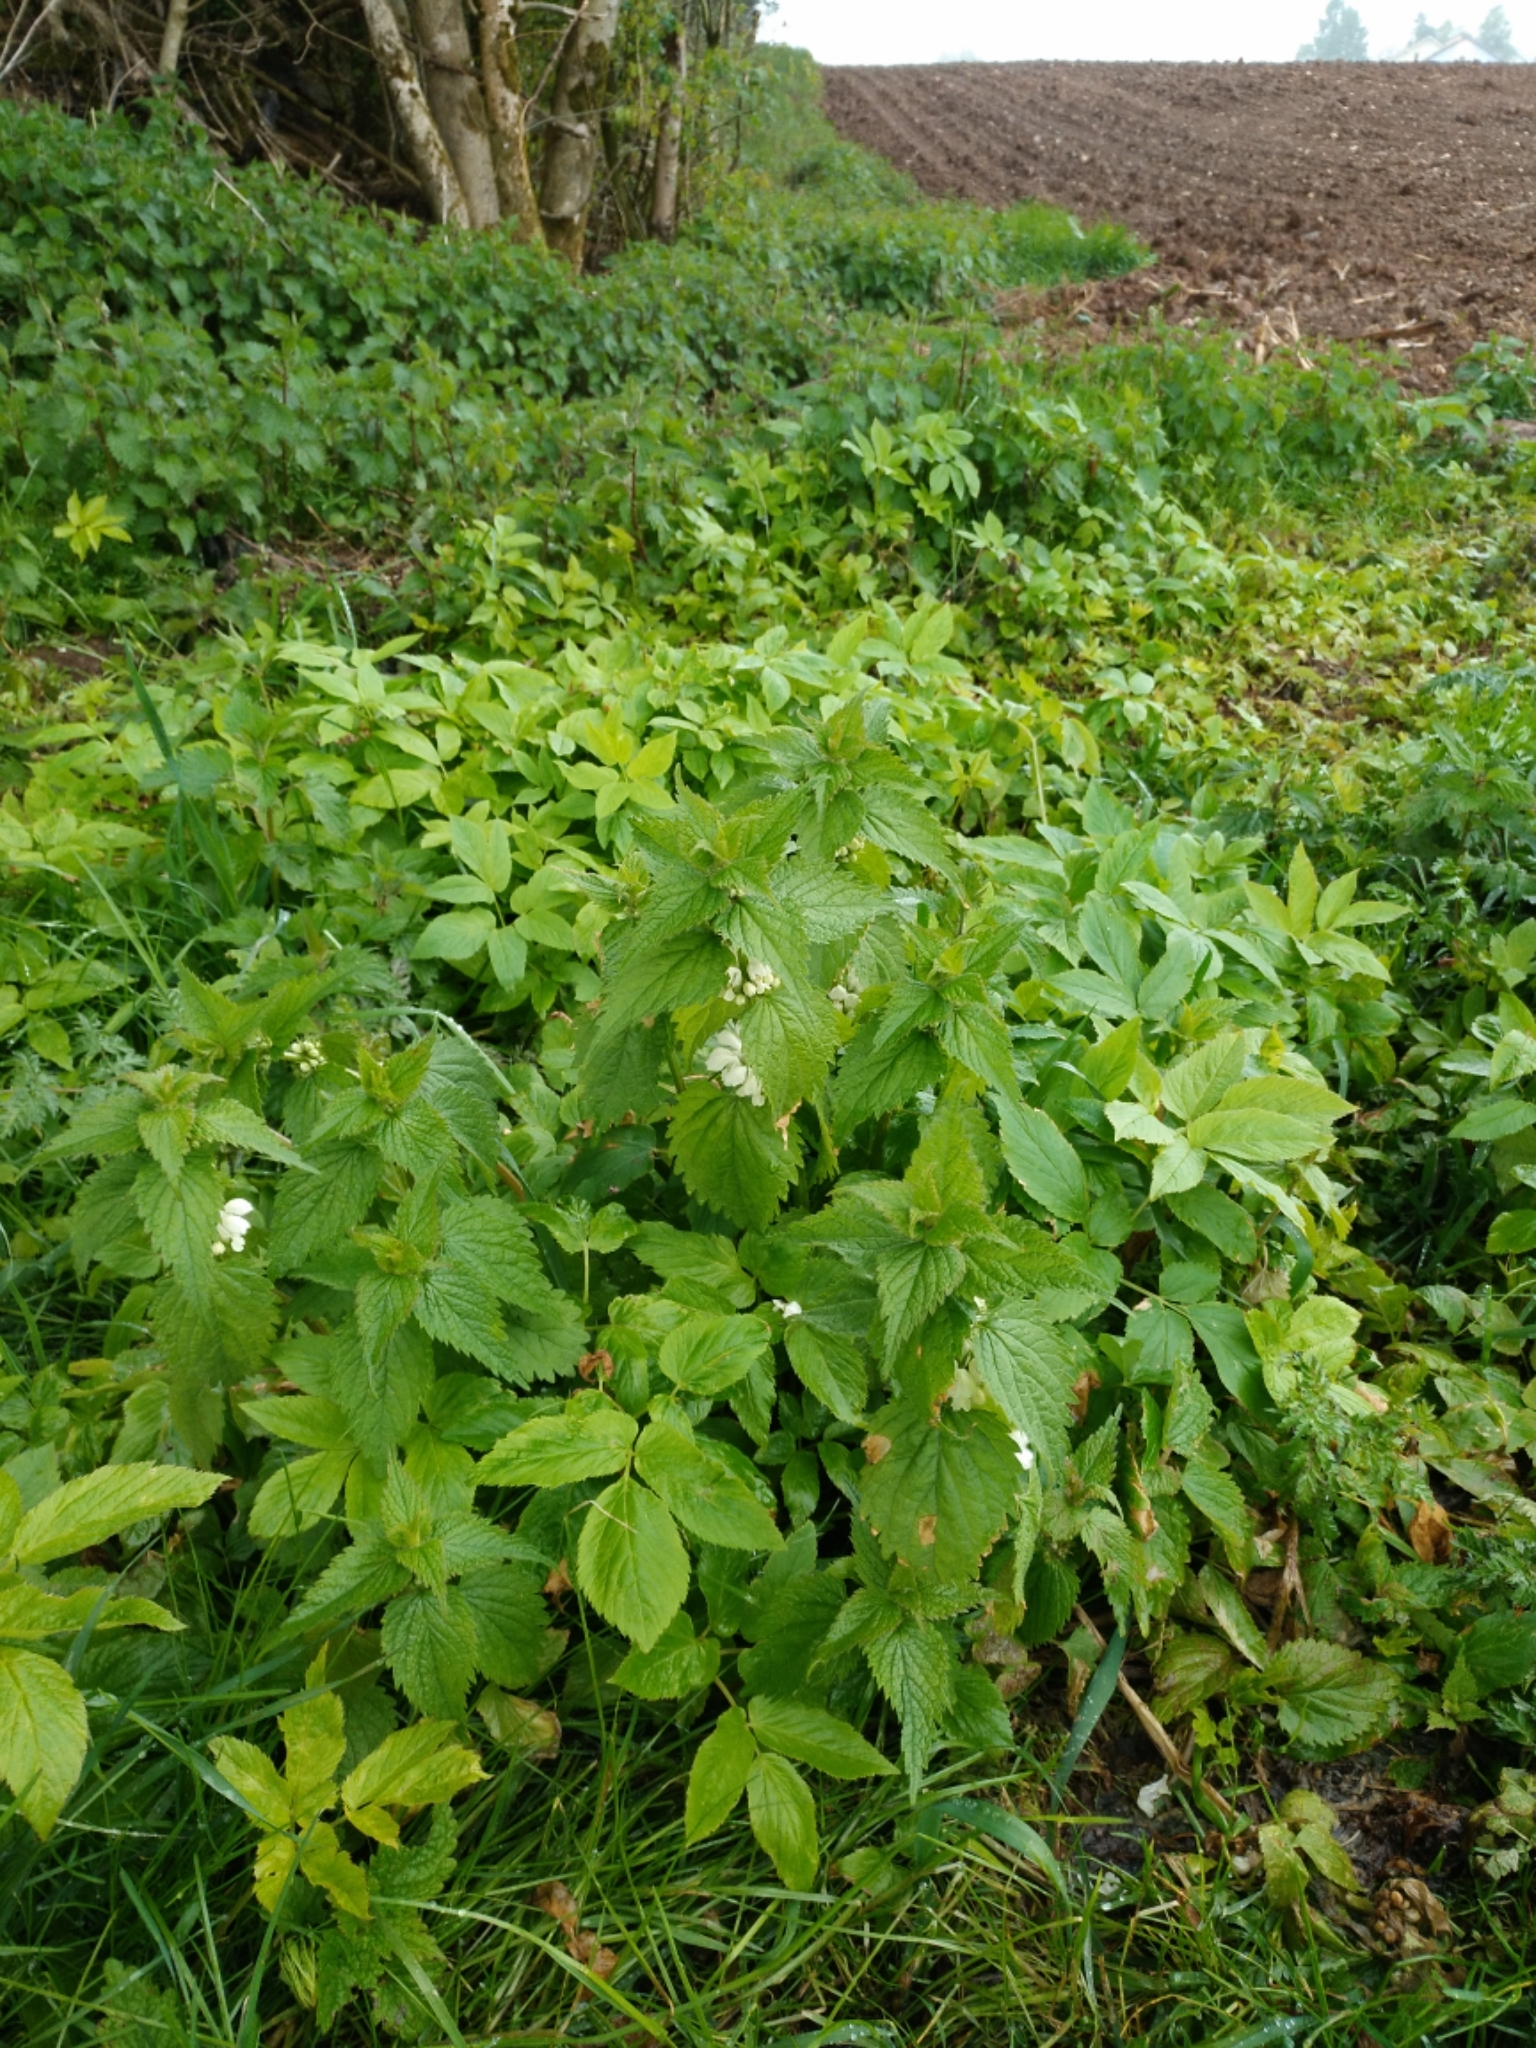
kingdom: Plantae
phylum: Tracheophyta
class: Magnoliopsida
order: Lamiales
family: Lamiaceae
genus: Lamium
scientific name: Lamium album
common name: White dead-nettle
